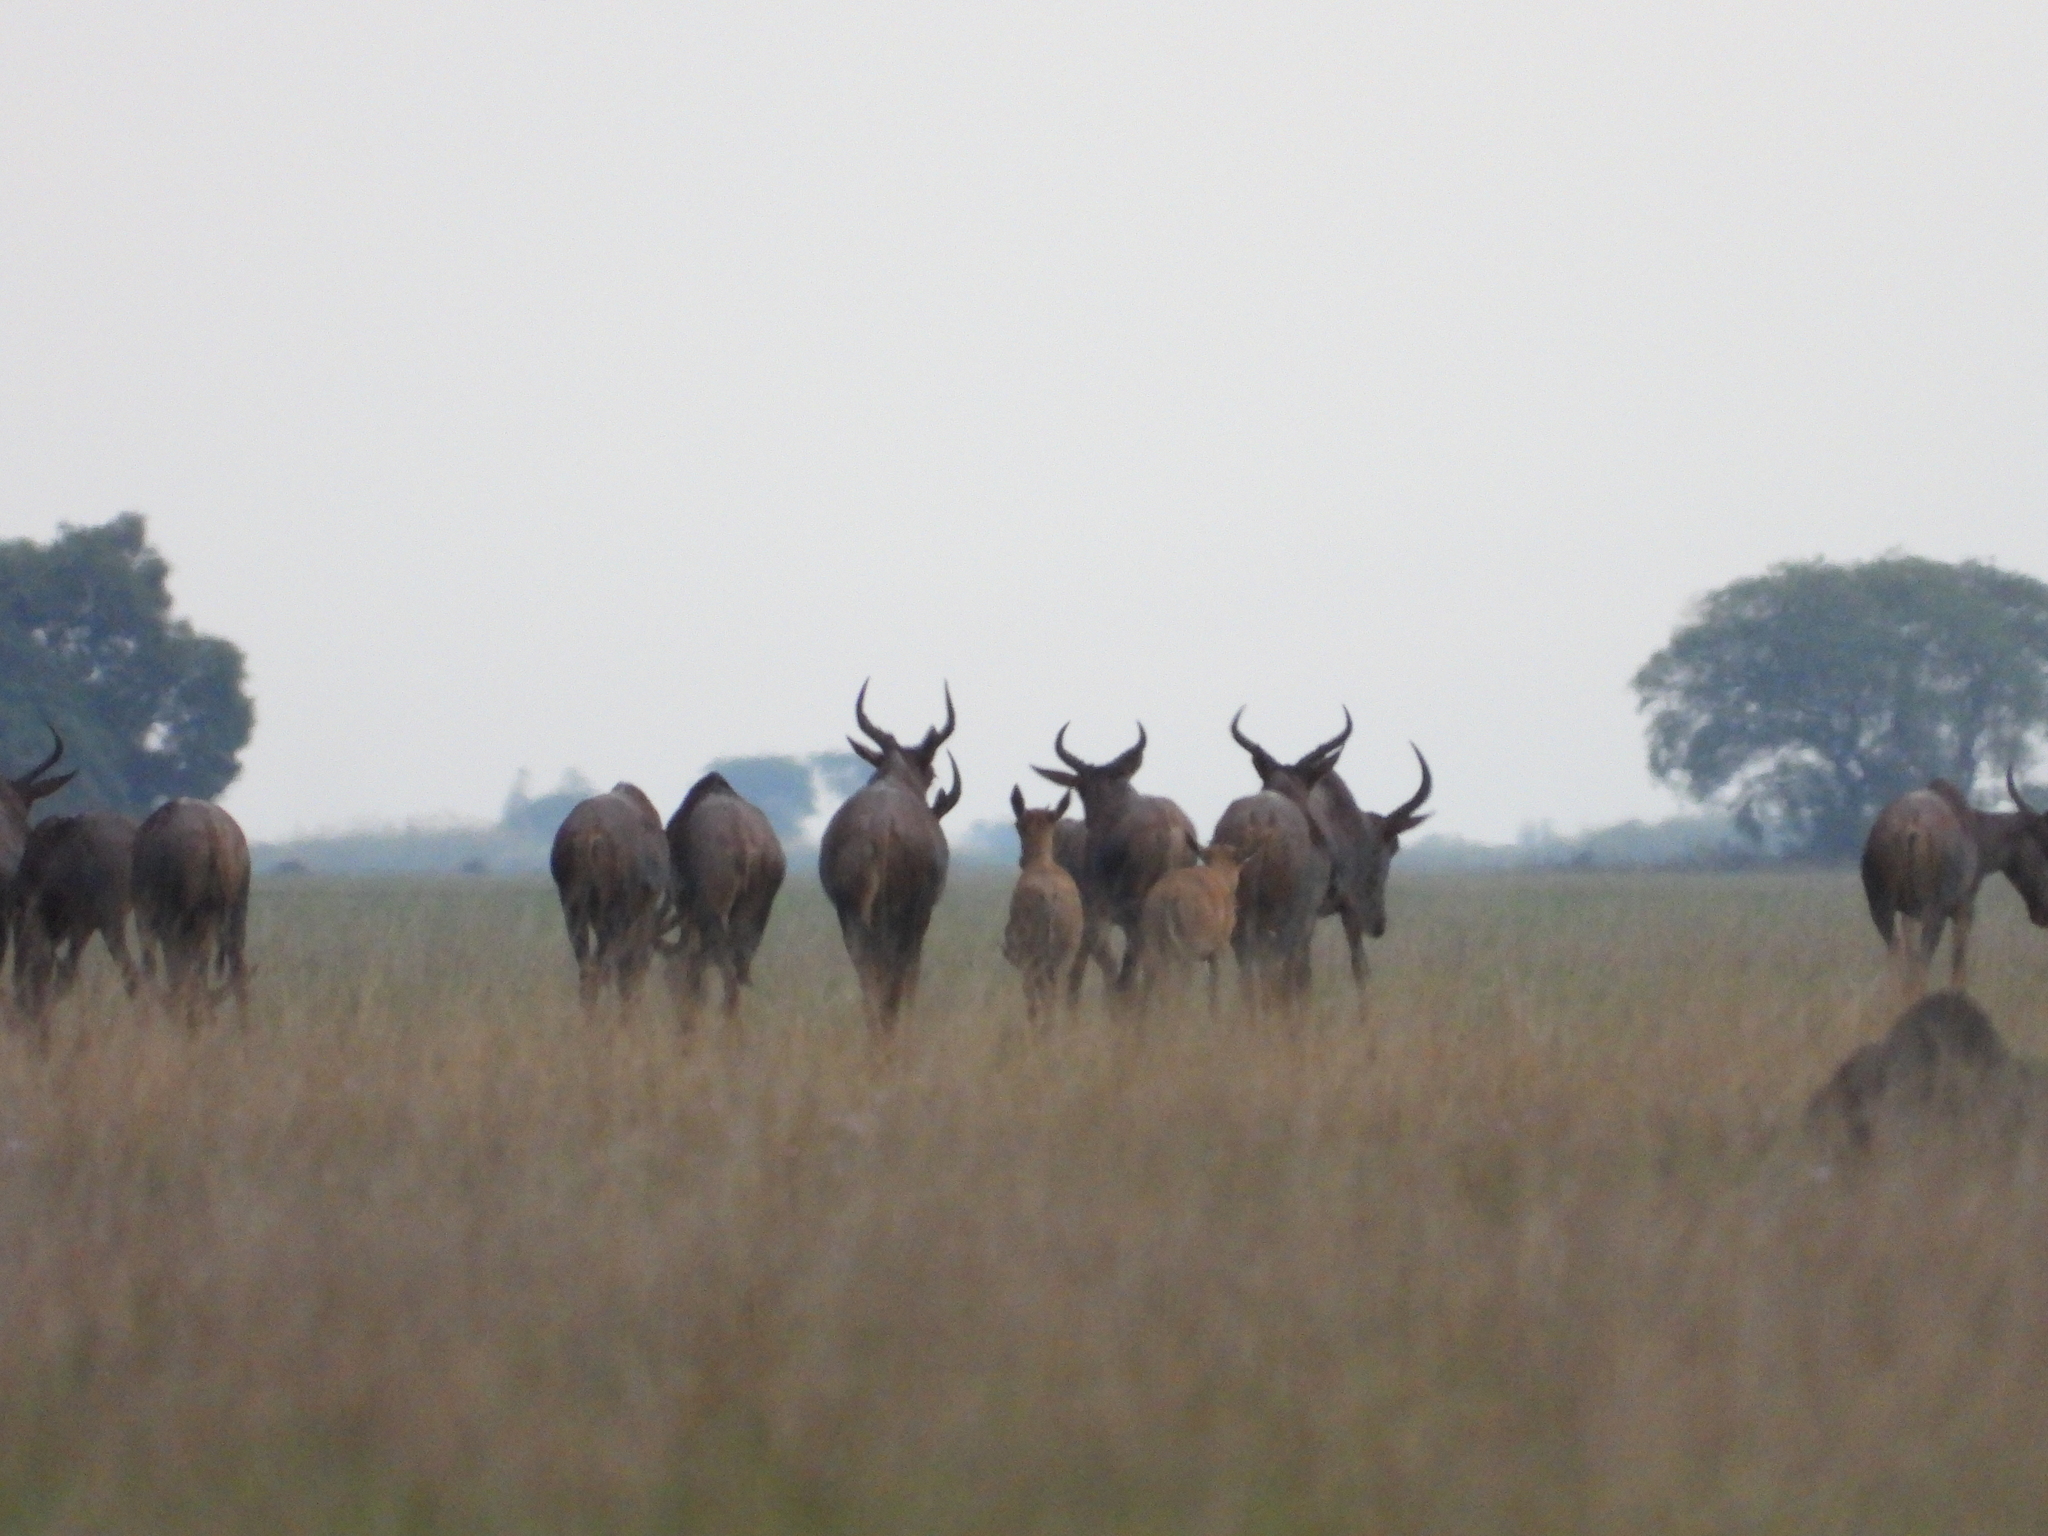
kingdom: Animalia
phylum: Chordata
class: Mammalia
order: Artiodactyla
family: Bovidae
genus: Damaliscus
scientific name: Damaliscus lunatus
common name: Common tsessebe
